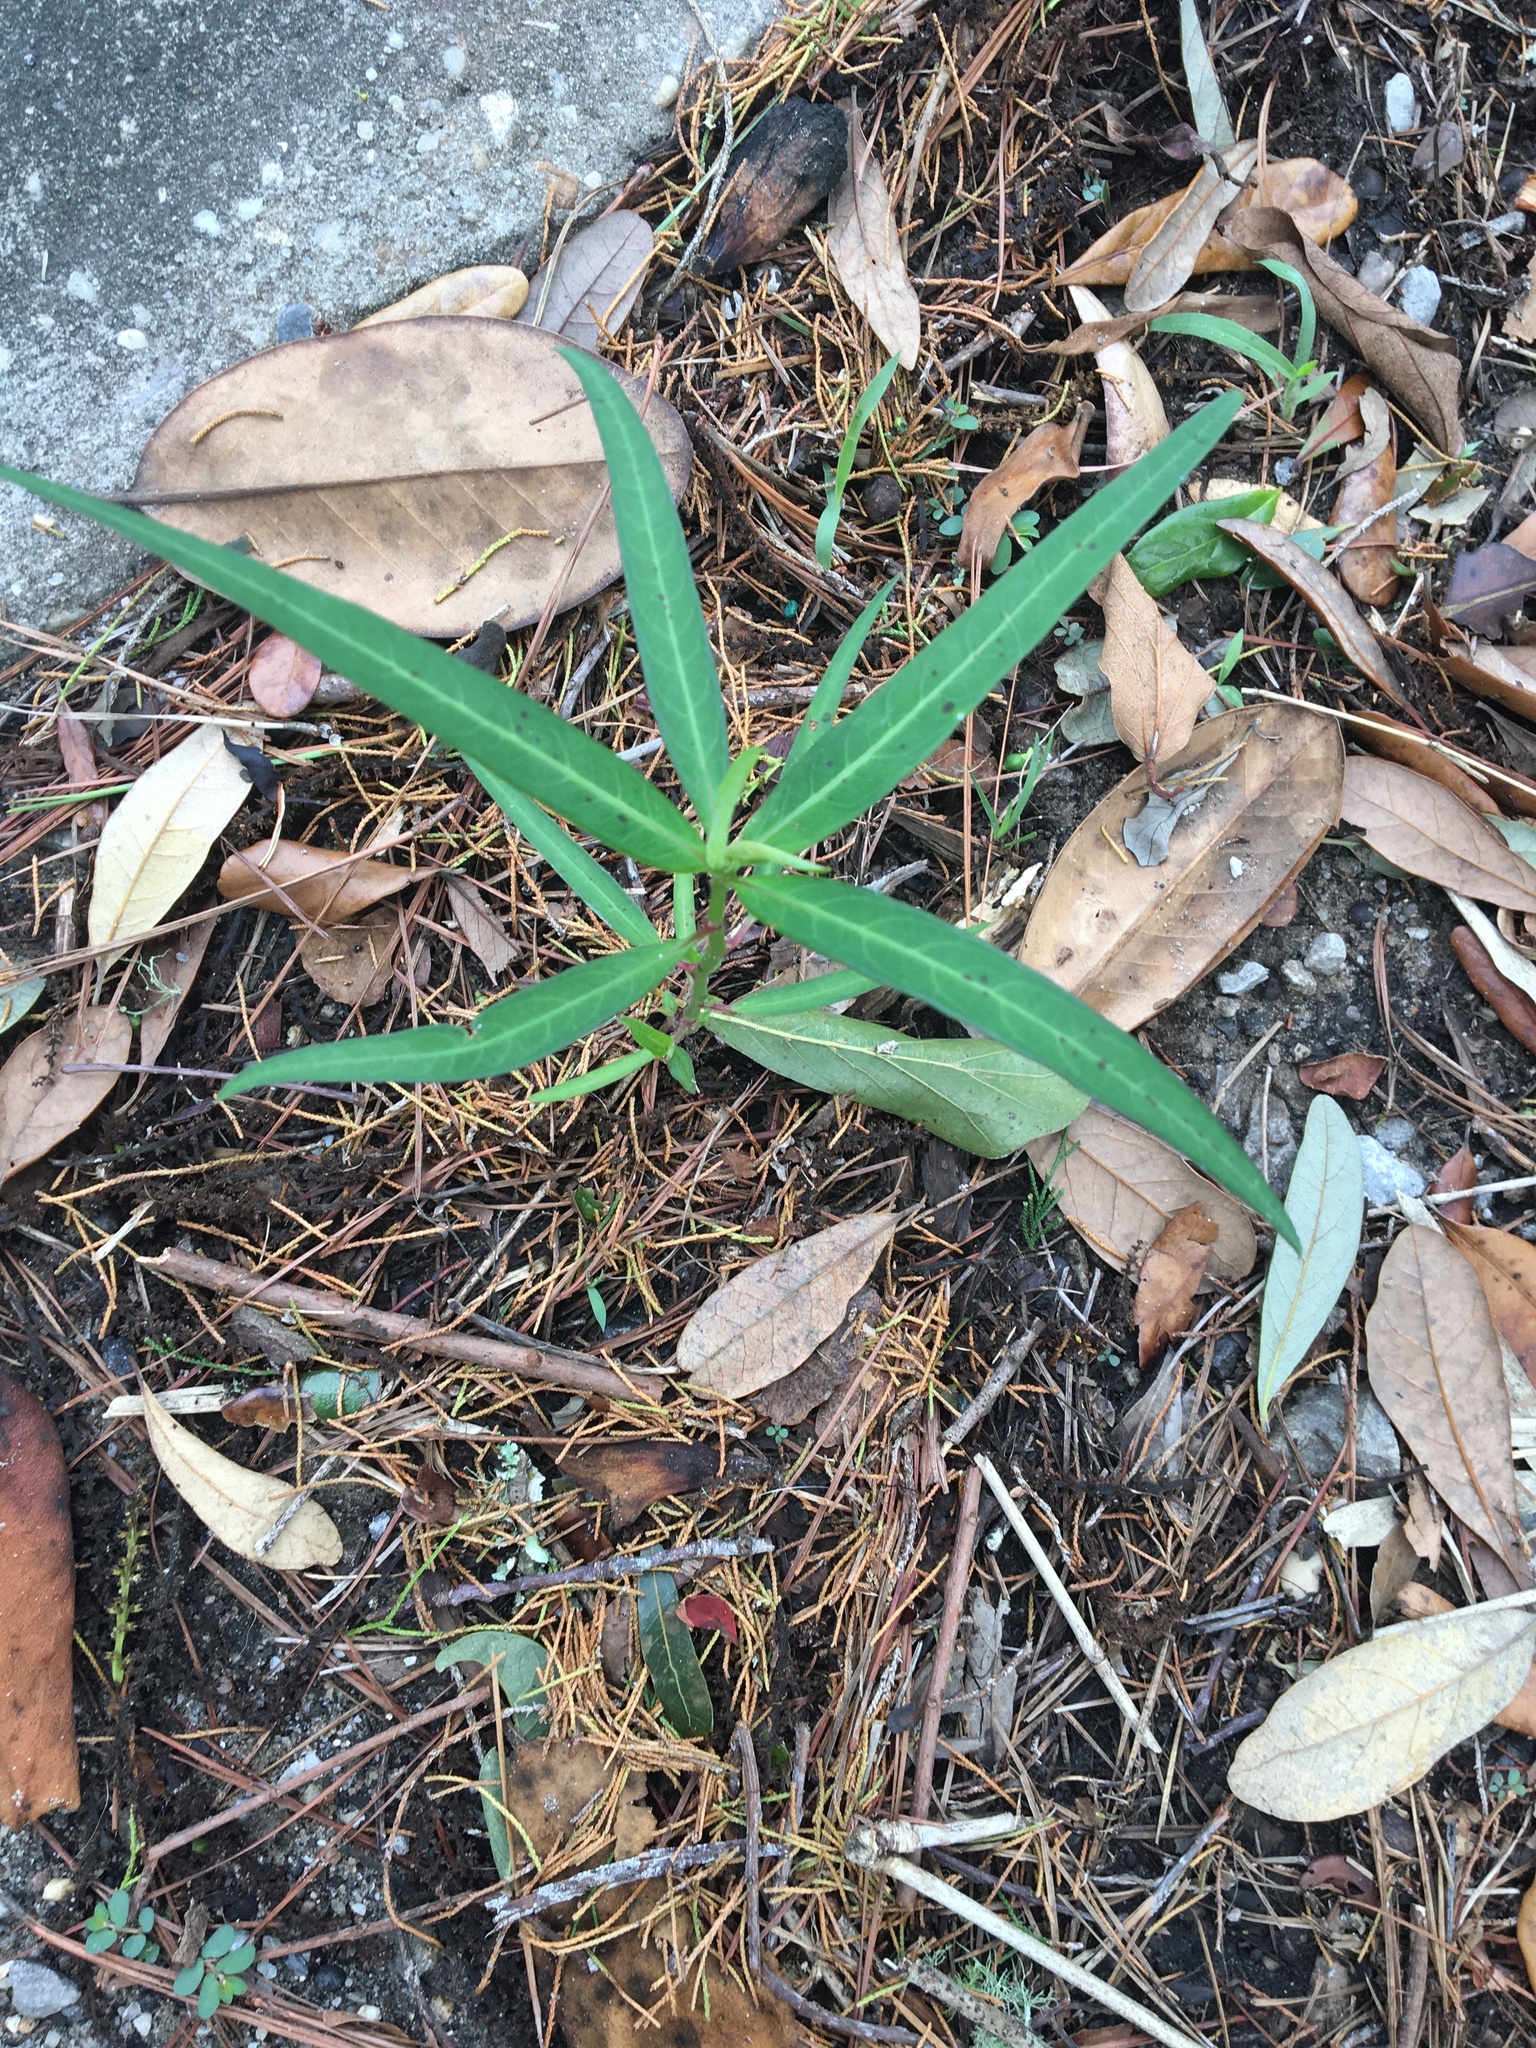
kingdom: Plantae
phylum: Tracheophyta
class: Magnoliopsida
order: Malpighiales
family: Euphorbiaceae
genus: Euphorbia
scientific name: Euphorbia heterophylla
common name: Mexican fireplant
